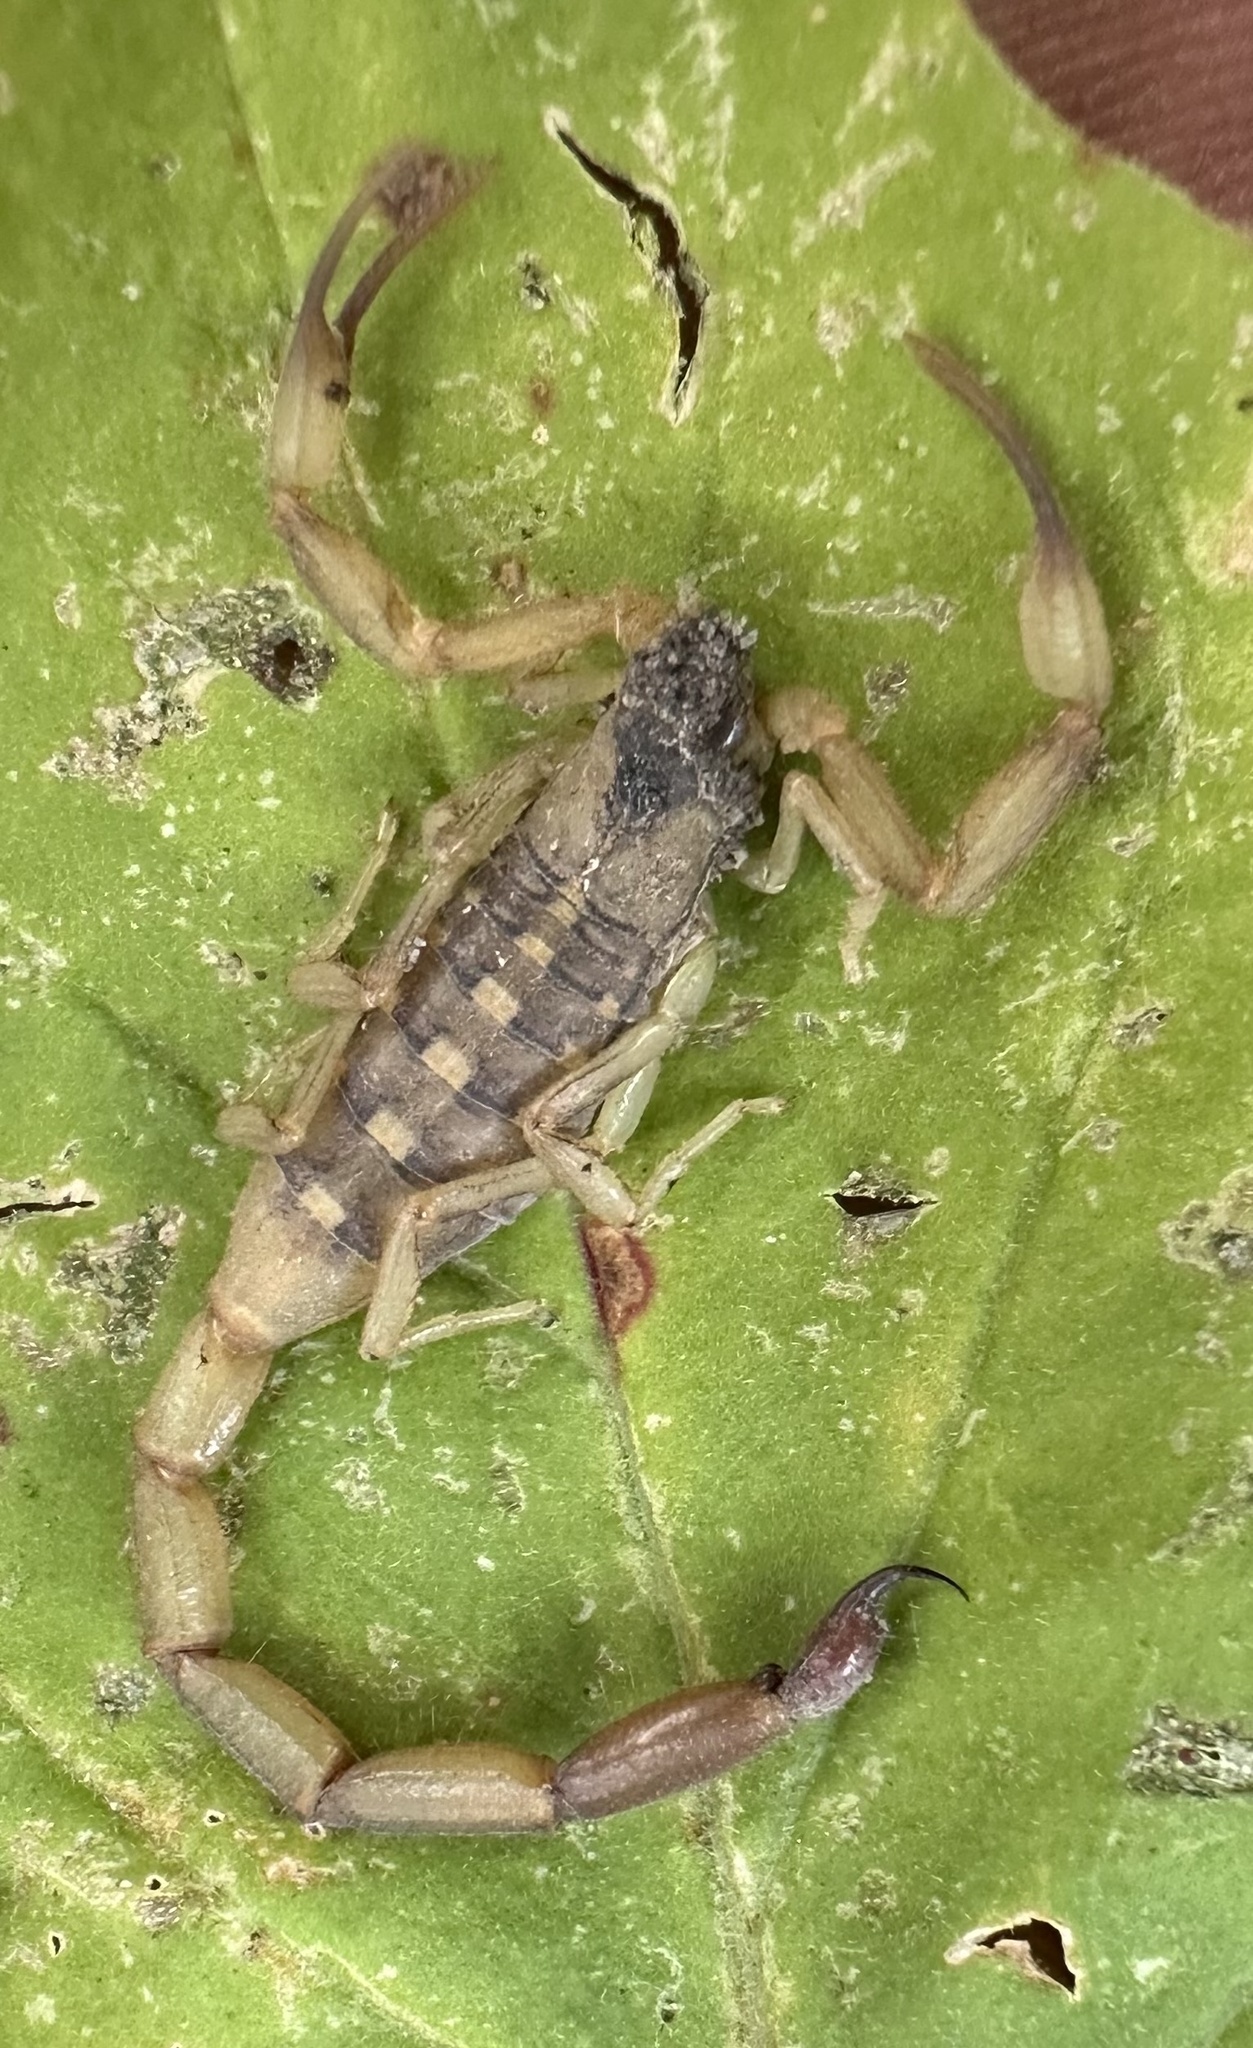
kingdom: Animalia
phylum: Arthropoda
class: Arachnida
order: Scorpiones
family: Buthidae
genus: Uroplectes
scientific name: Uroplectes vittatus
